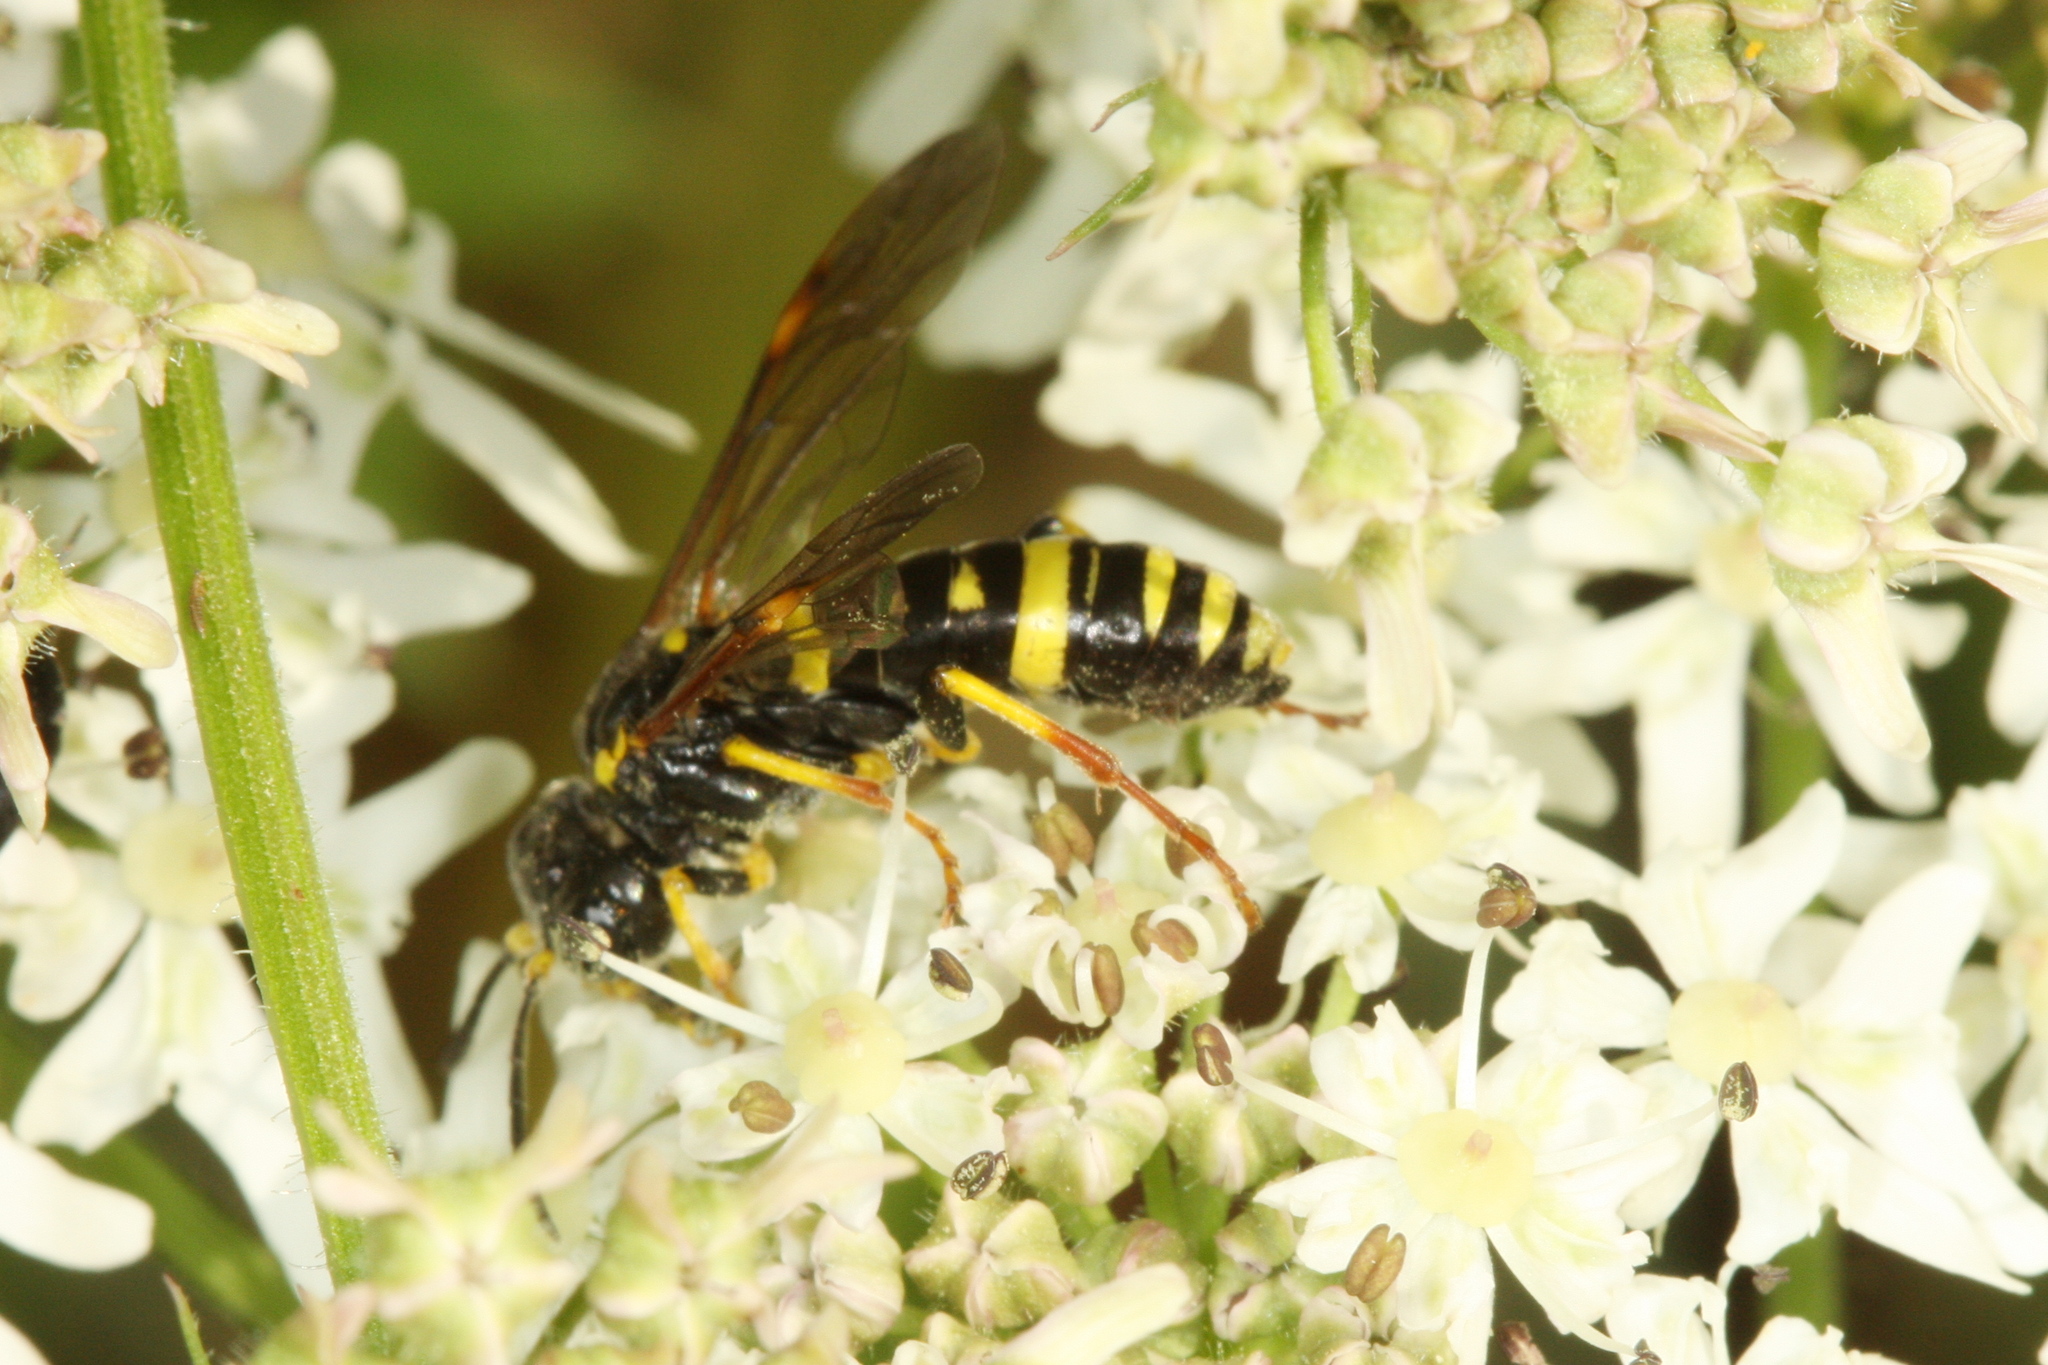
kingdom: Animalia
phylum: Arthropoda
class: Insecta
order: Hymenoptera
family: Tenthredinidae
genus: Tenthredo
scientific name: Tenthredo amoena
